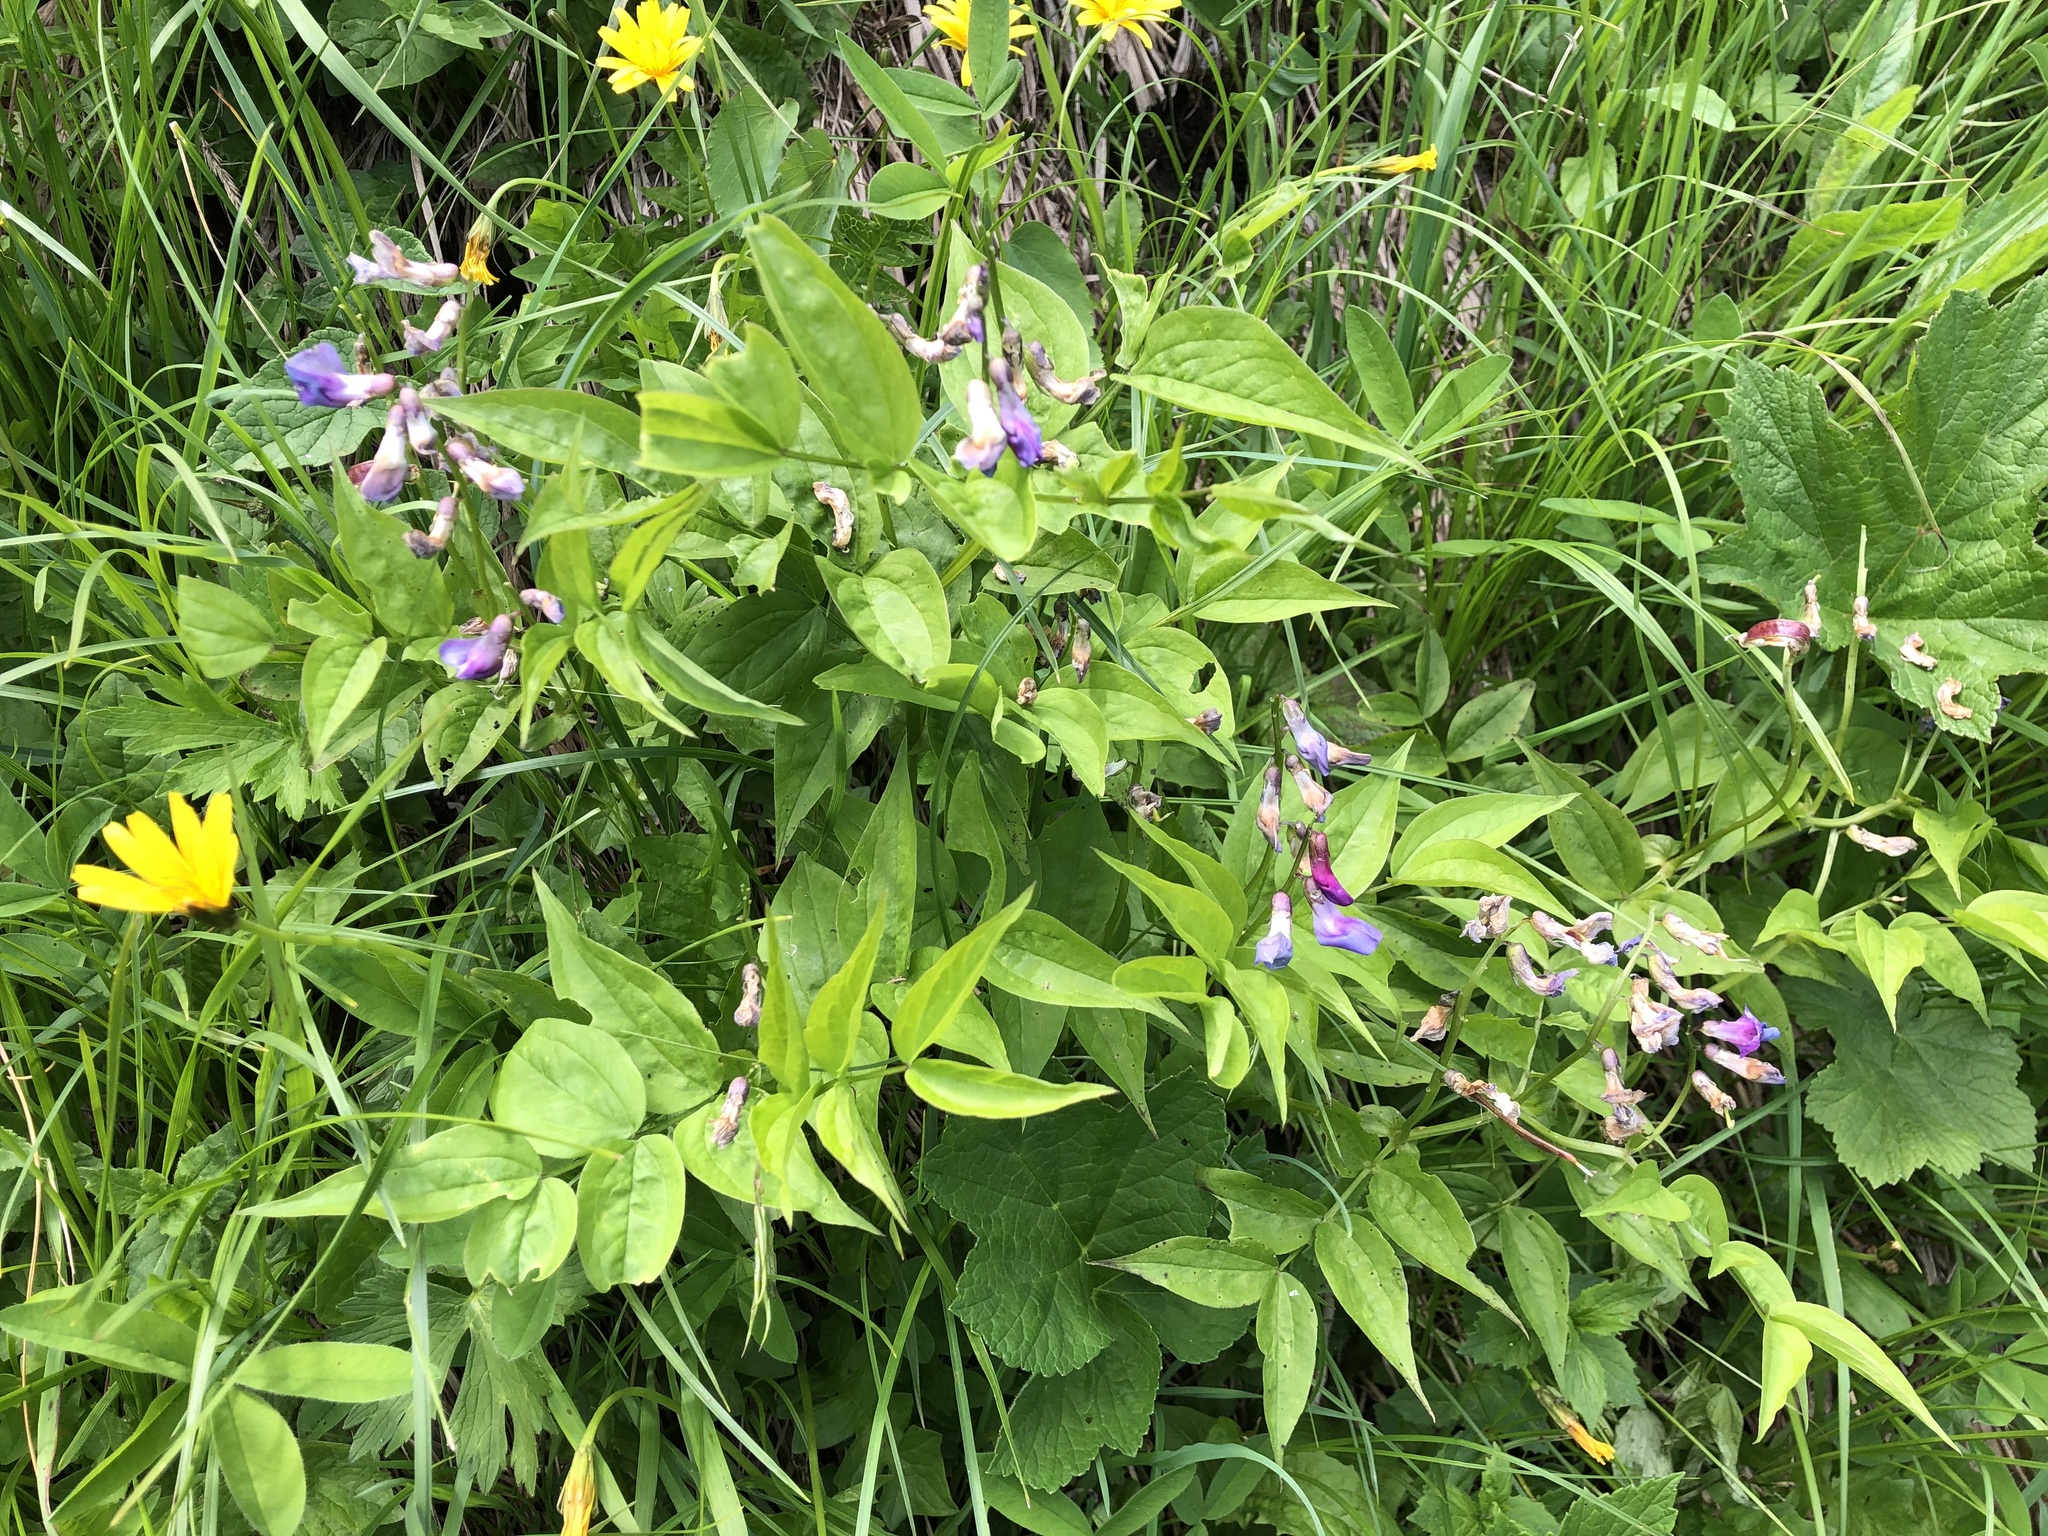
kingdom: Plantae
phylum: Tracheophyta
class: Magnoliopsida
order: Fabales
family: Fabaceae
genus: Lathyrus
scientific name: Lathyrus vernus
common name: Spring pea
